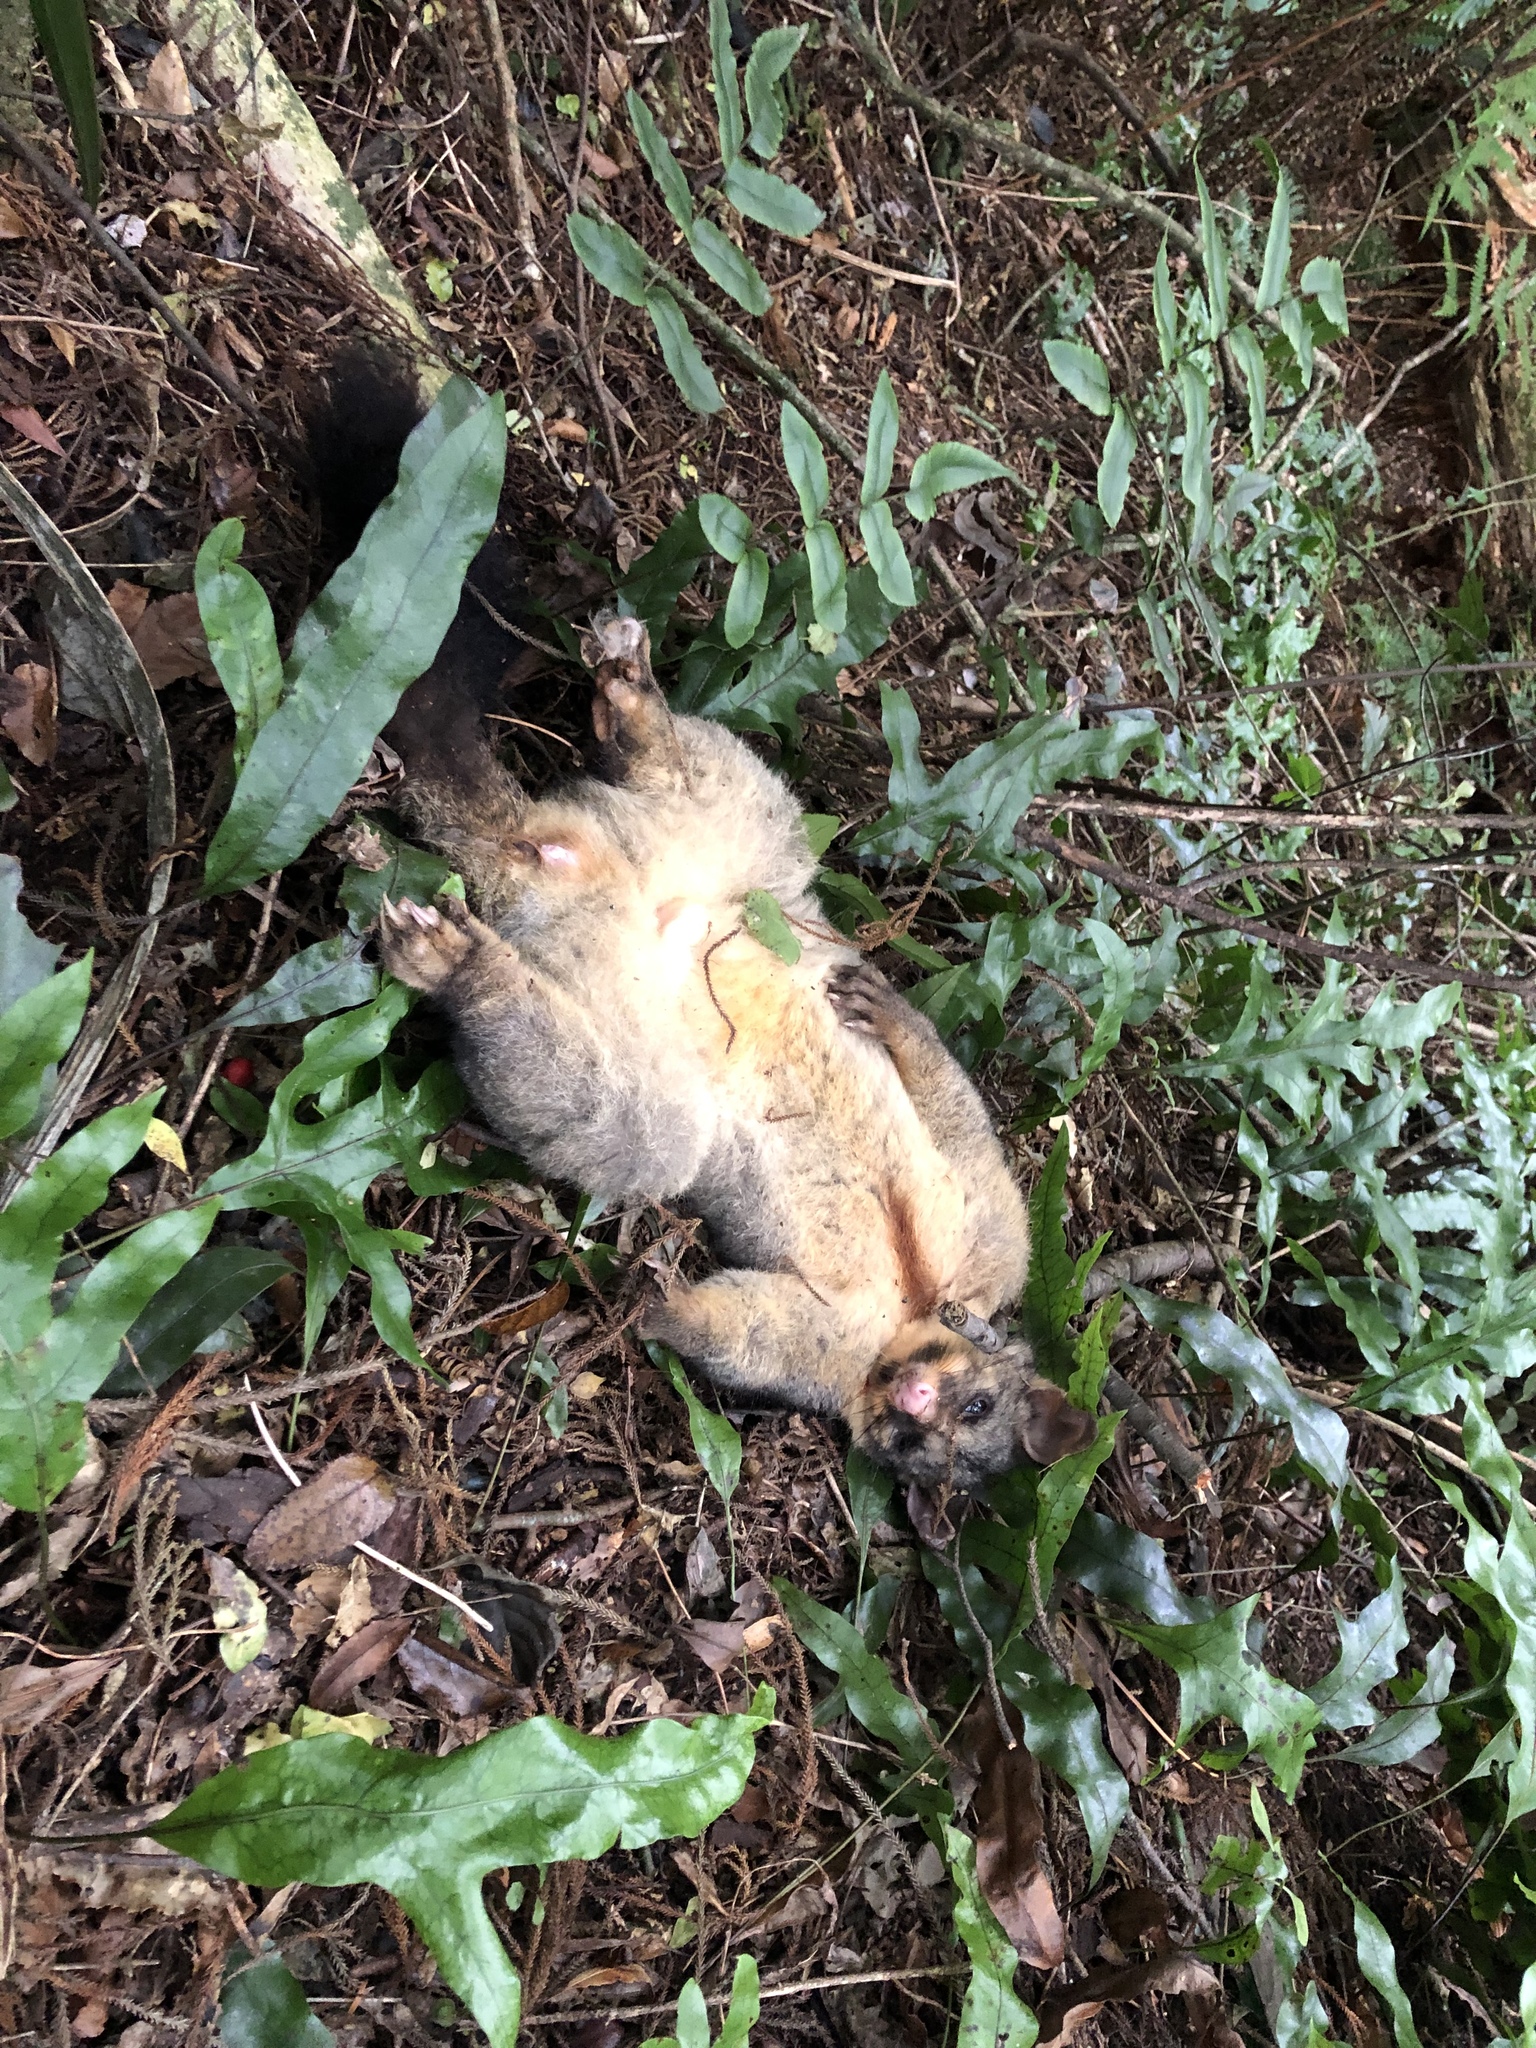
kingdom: Animalia
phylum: Chordata
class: Mammalia
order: Diprotodontia
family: Phalangeridae
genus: Trichosurus
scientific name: Trichosurus vulpecula
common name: Common brushtail
